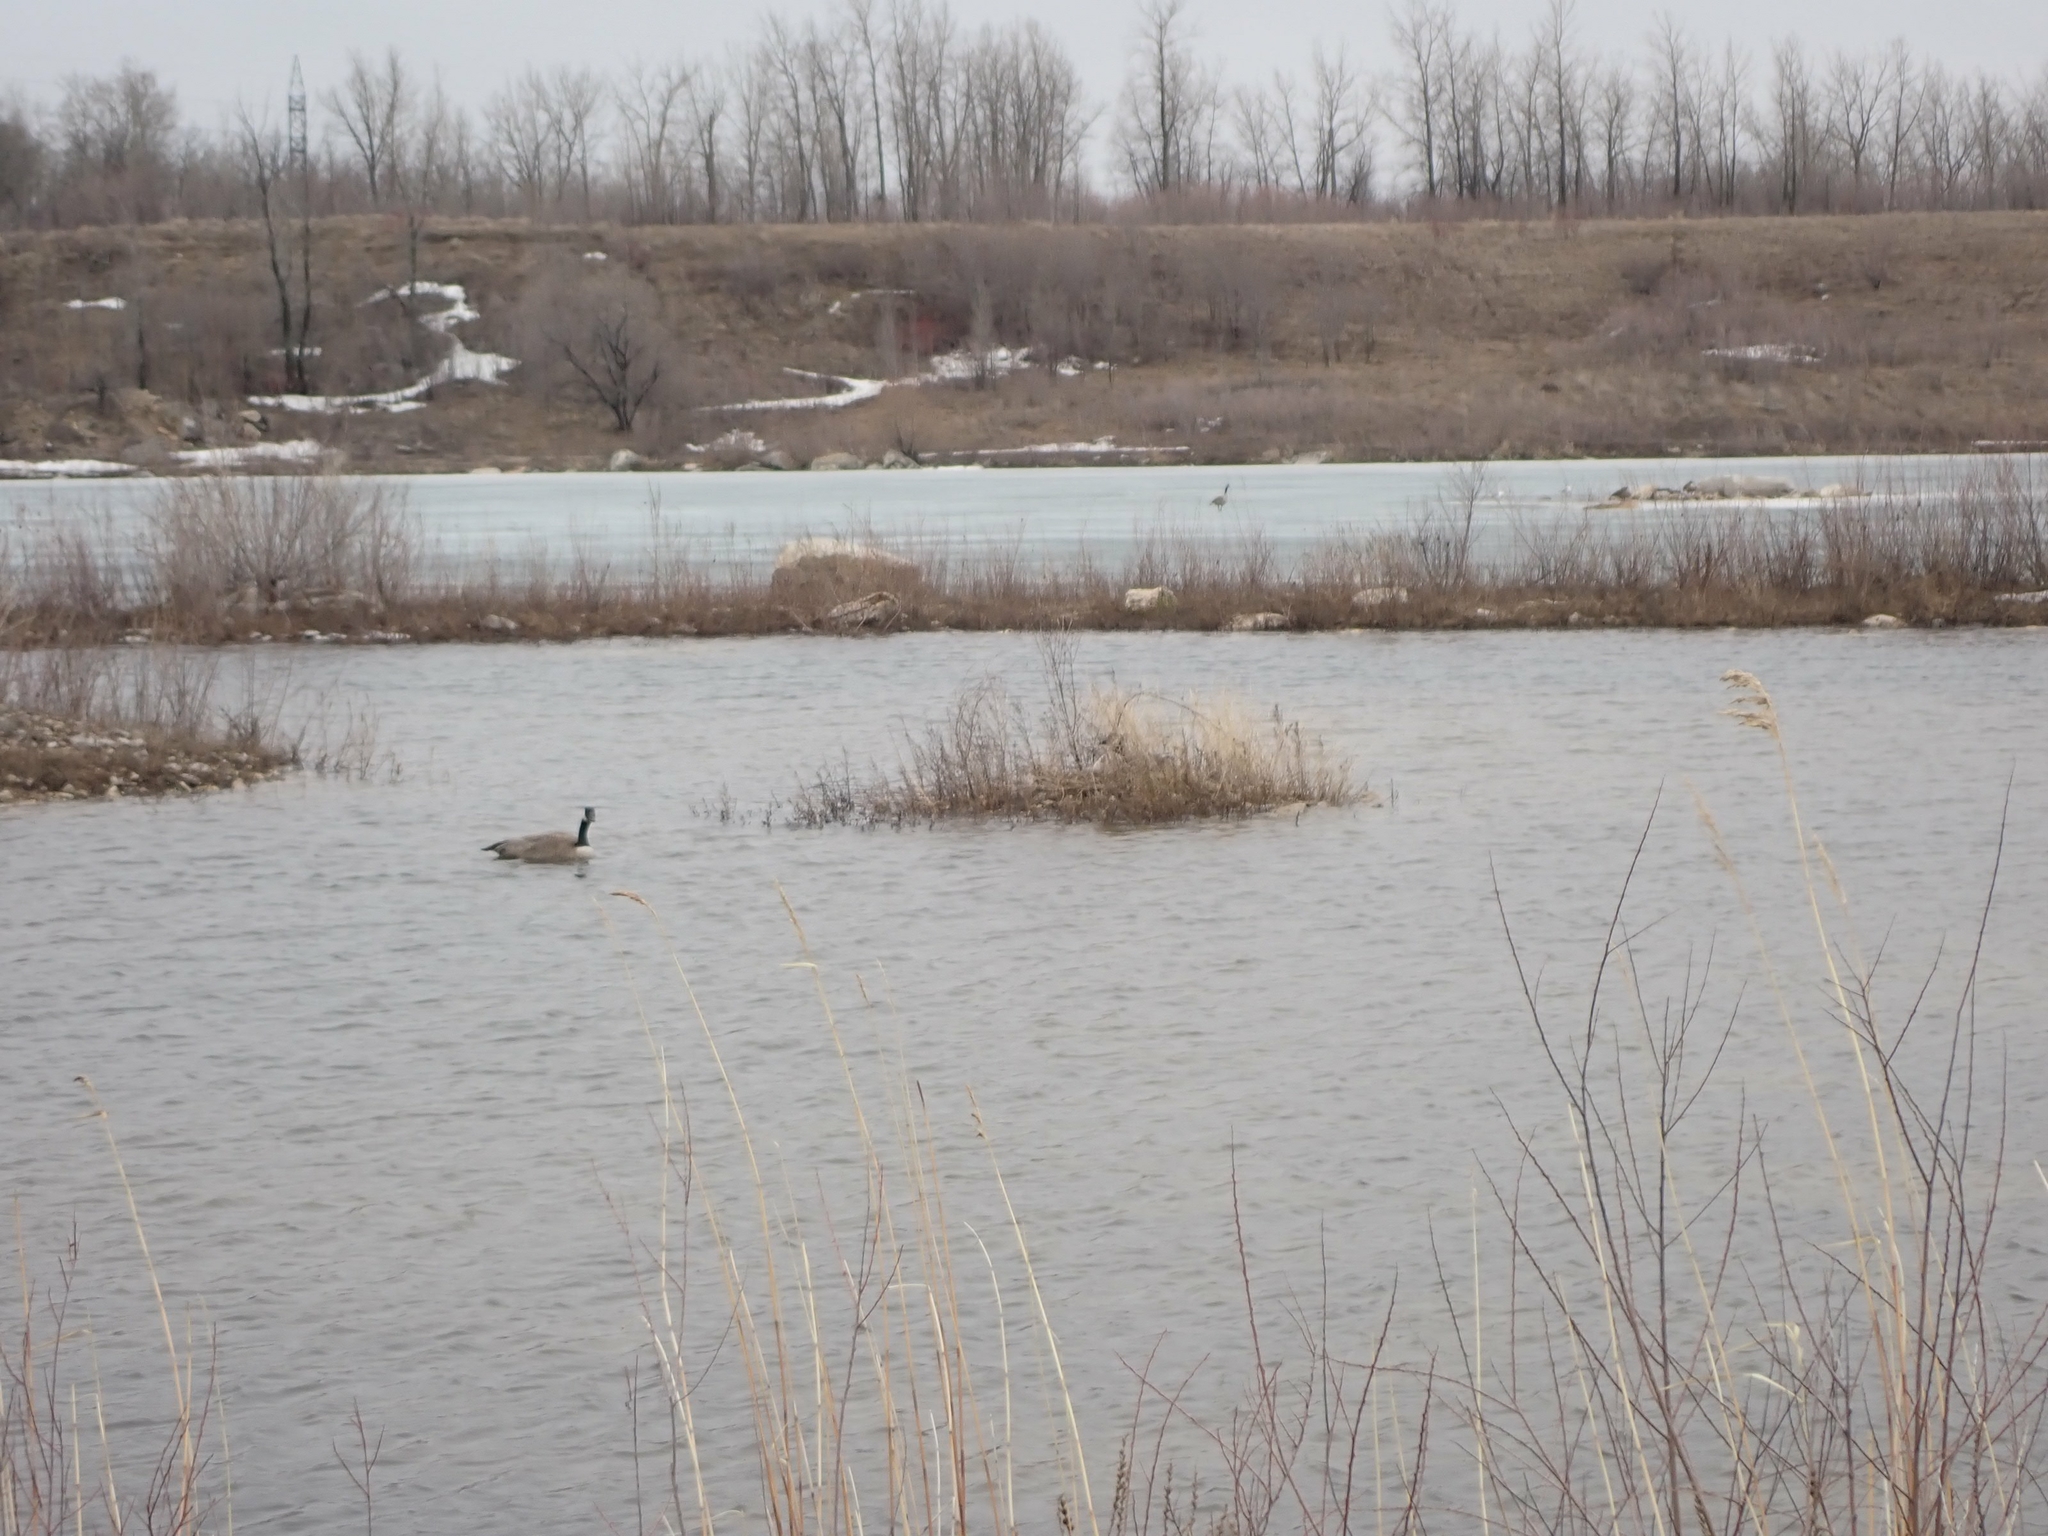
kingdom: Animalia
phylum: Chordata
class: Aves
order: Anseriformes
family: Anatidae
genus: Branta
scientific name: Branta canadensis
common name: Canada goose
